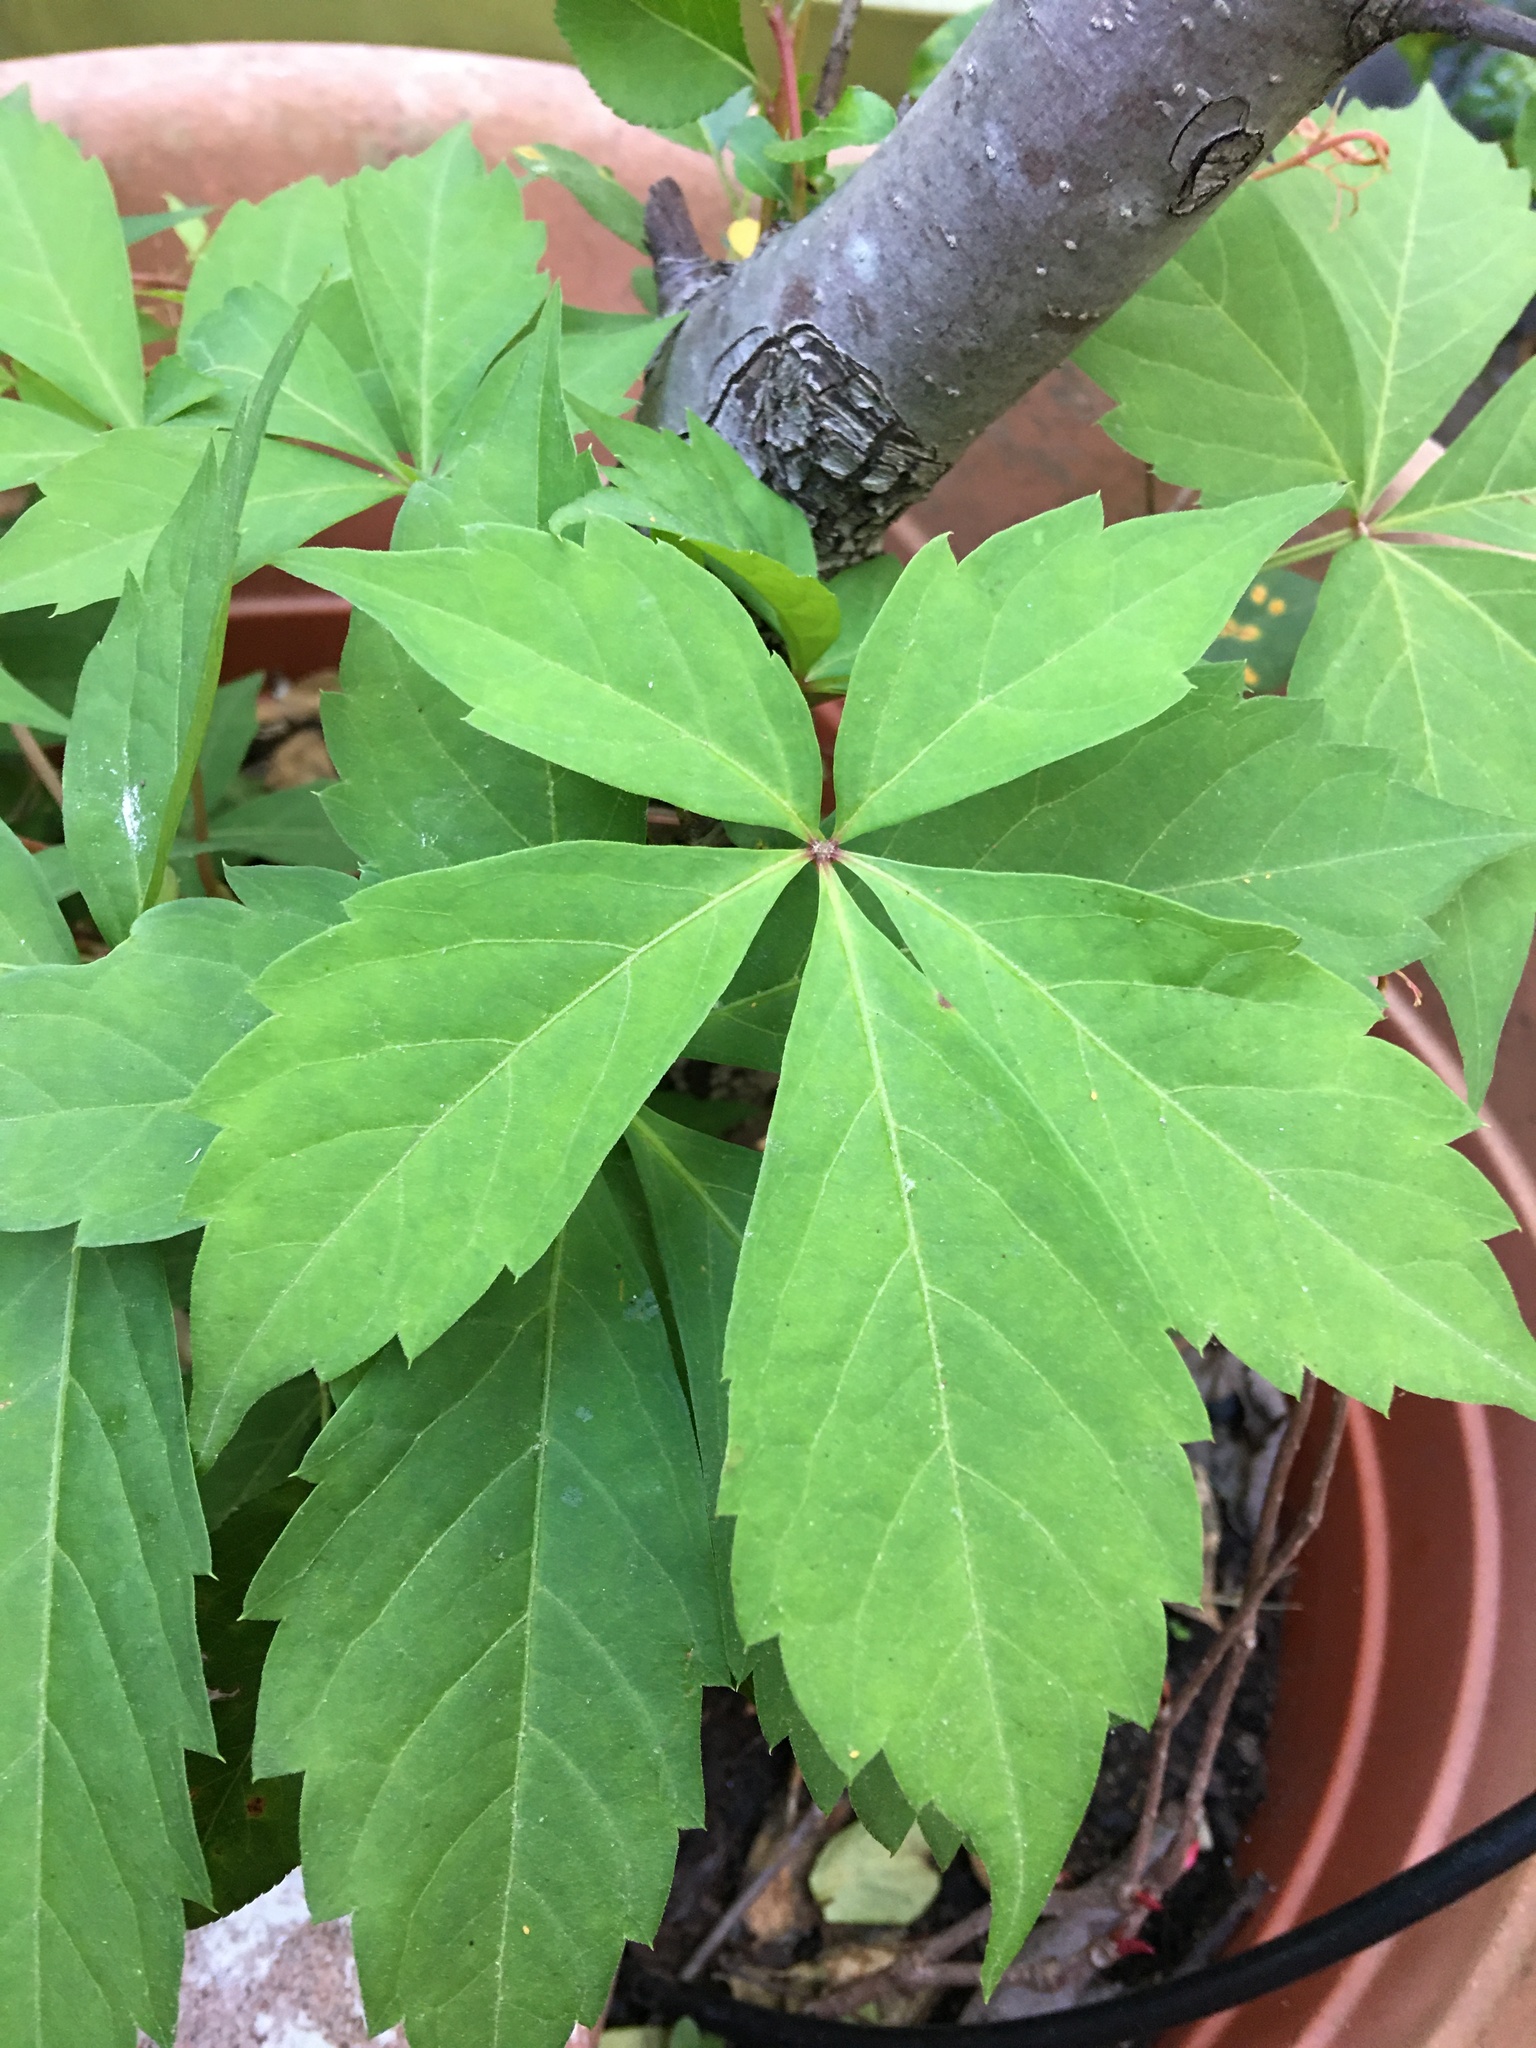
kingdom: Plantae
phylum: Tracheophyta
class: Magnoliopsida
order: Vitales
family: Vitaceae
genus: Parthenocissus
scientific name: Parthenocissus quinquefolia
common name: Virginia-creeper
